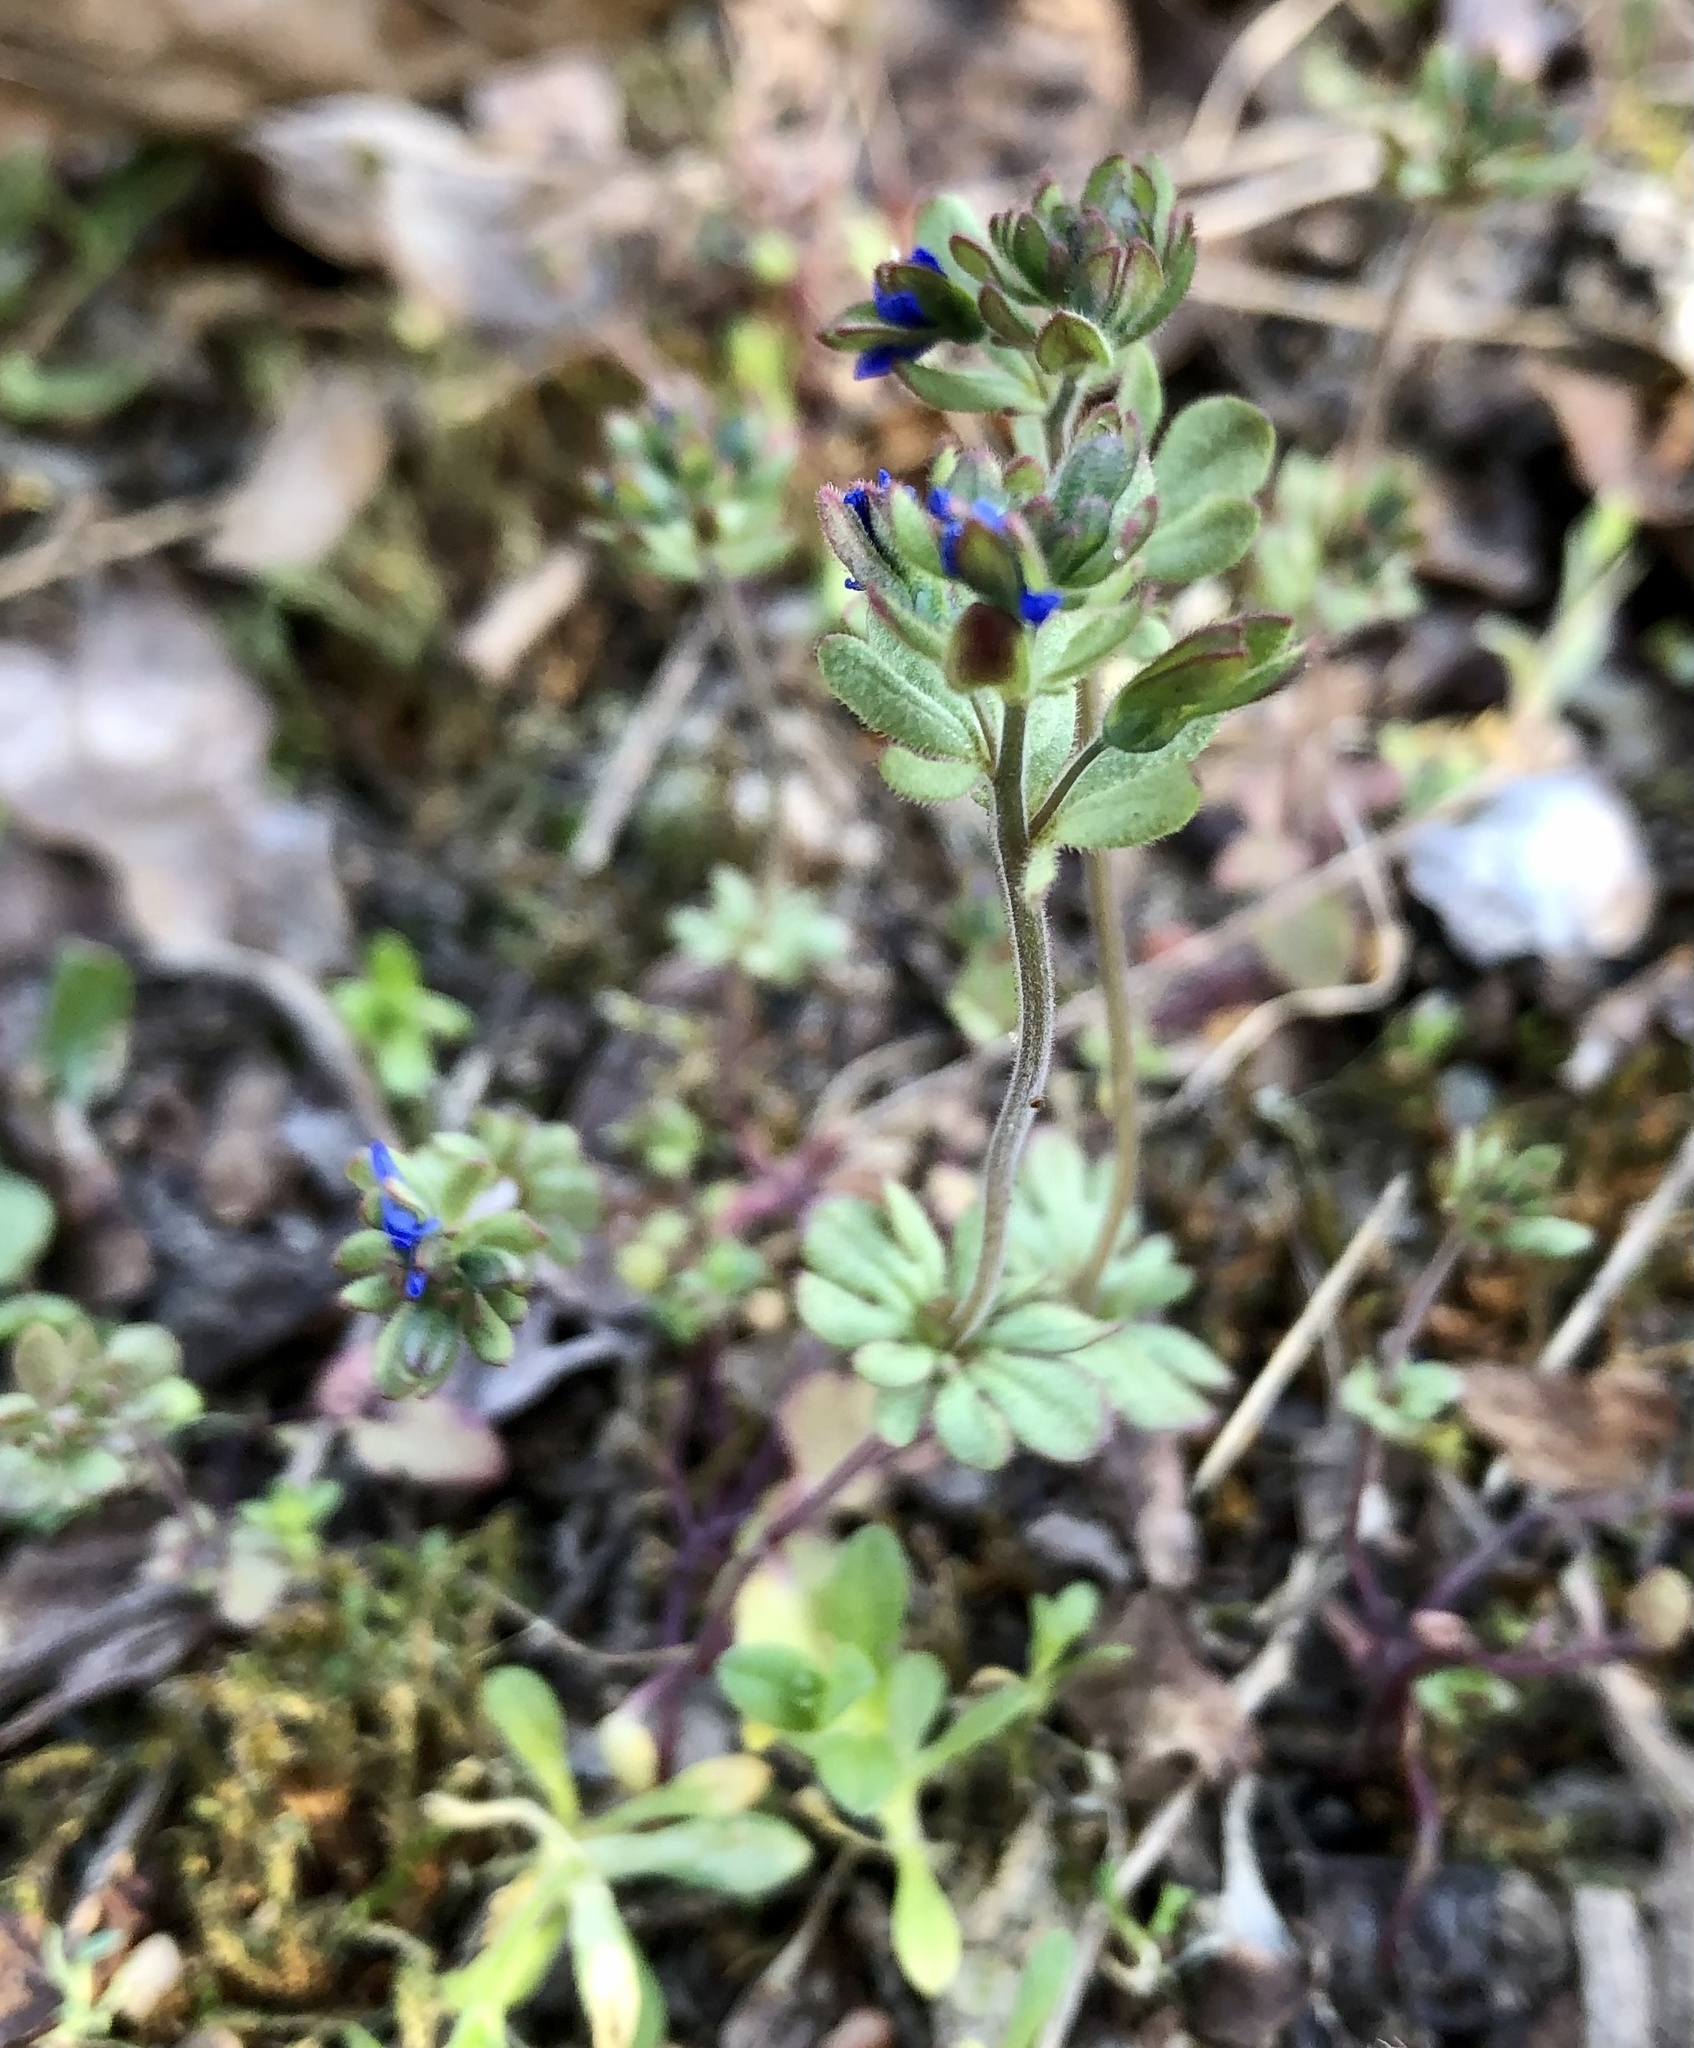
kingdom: Plantae
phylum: Tracheophyta
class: Magnoliopsida
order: Lamiales
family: Plantaginaceae
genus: Veronica
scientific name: Veronica triphyllos
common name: Fingered speedwell
